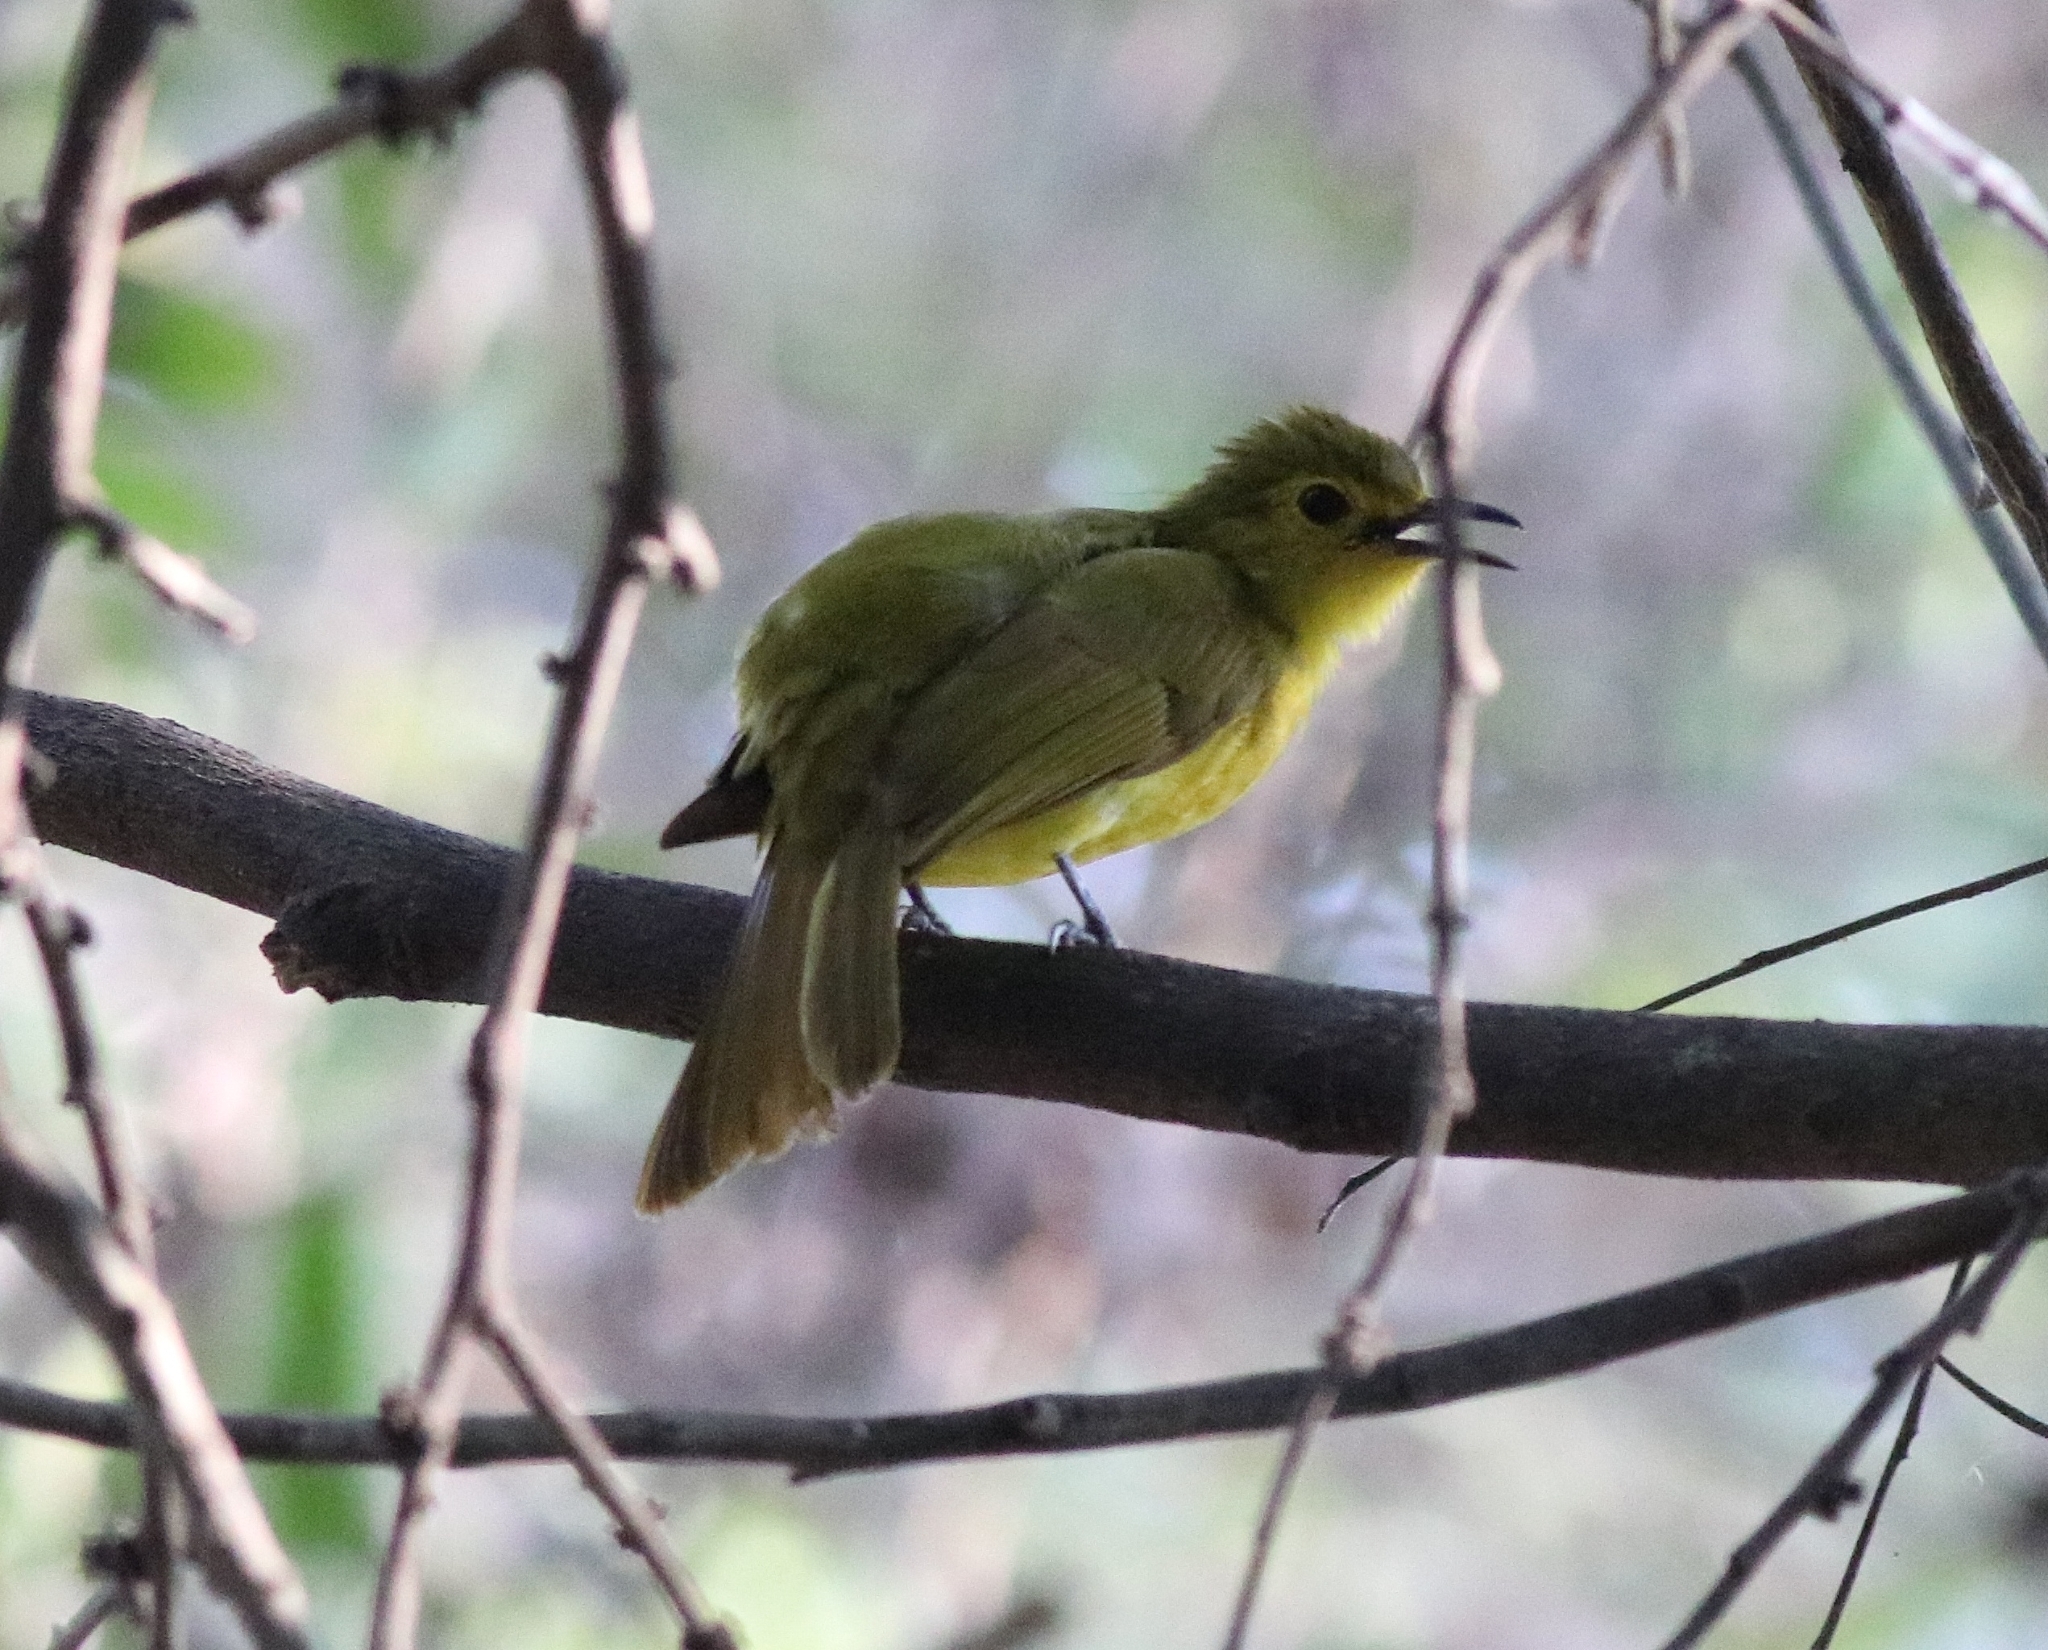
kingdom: Animalia
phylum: Chordata
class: Aves
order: Passeriformes
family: Pycnonotidae
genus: Acritillas
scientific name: Acritillas indica
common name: Yellow-browed bulbul
